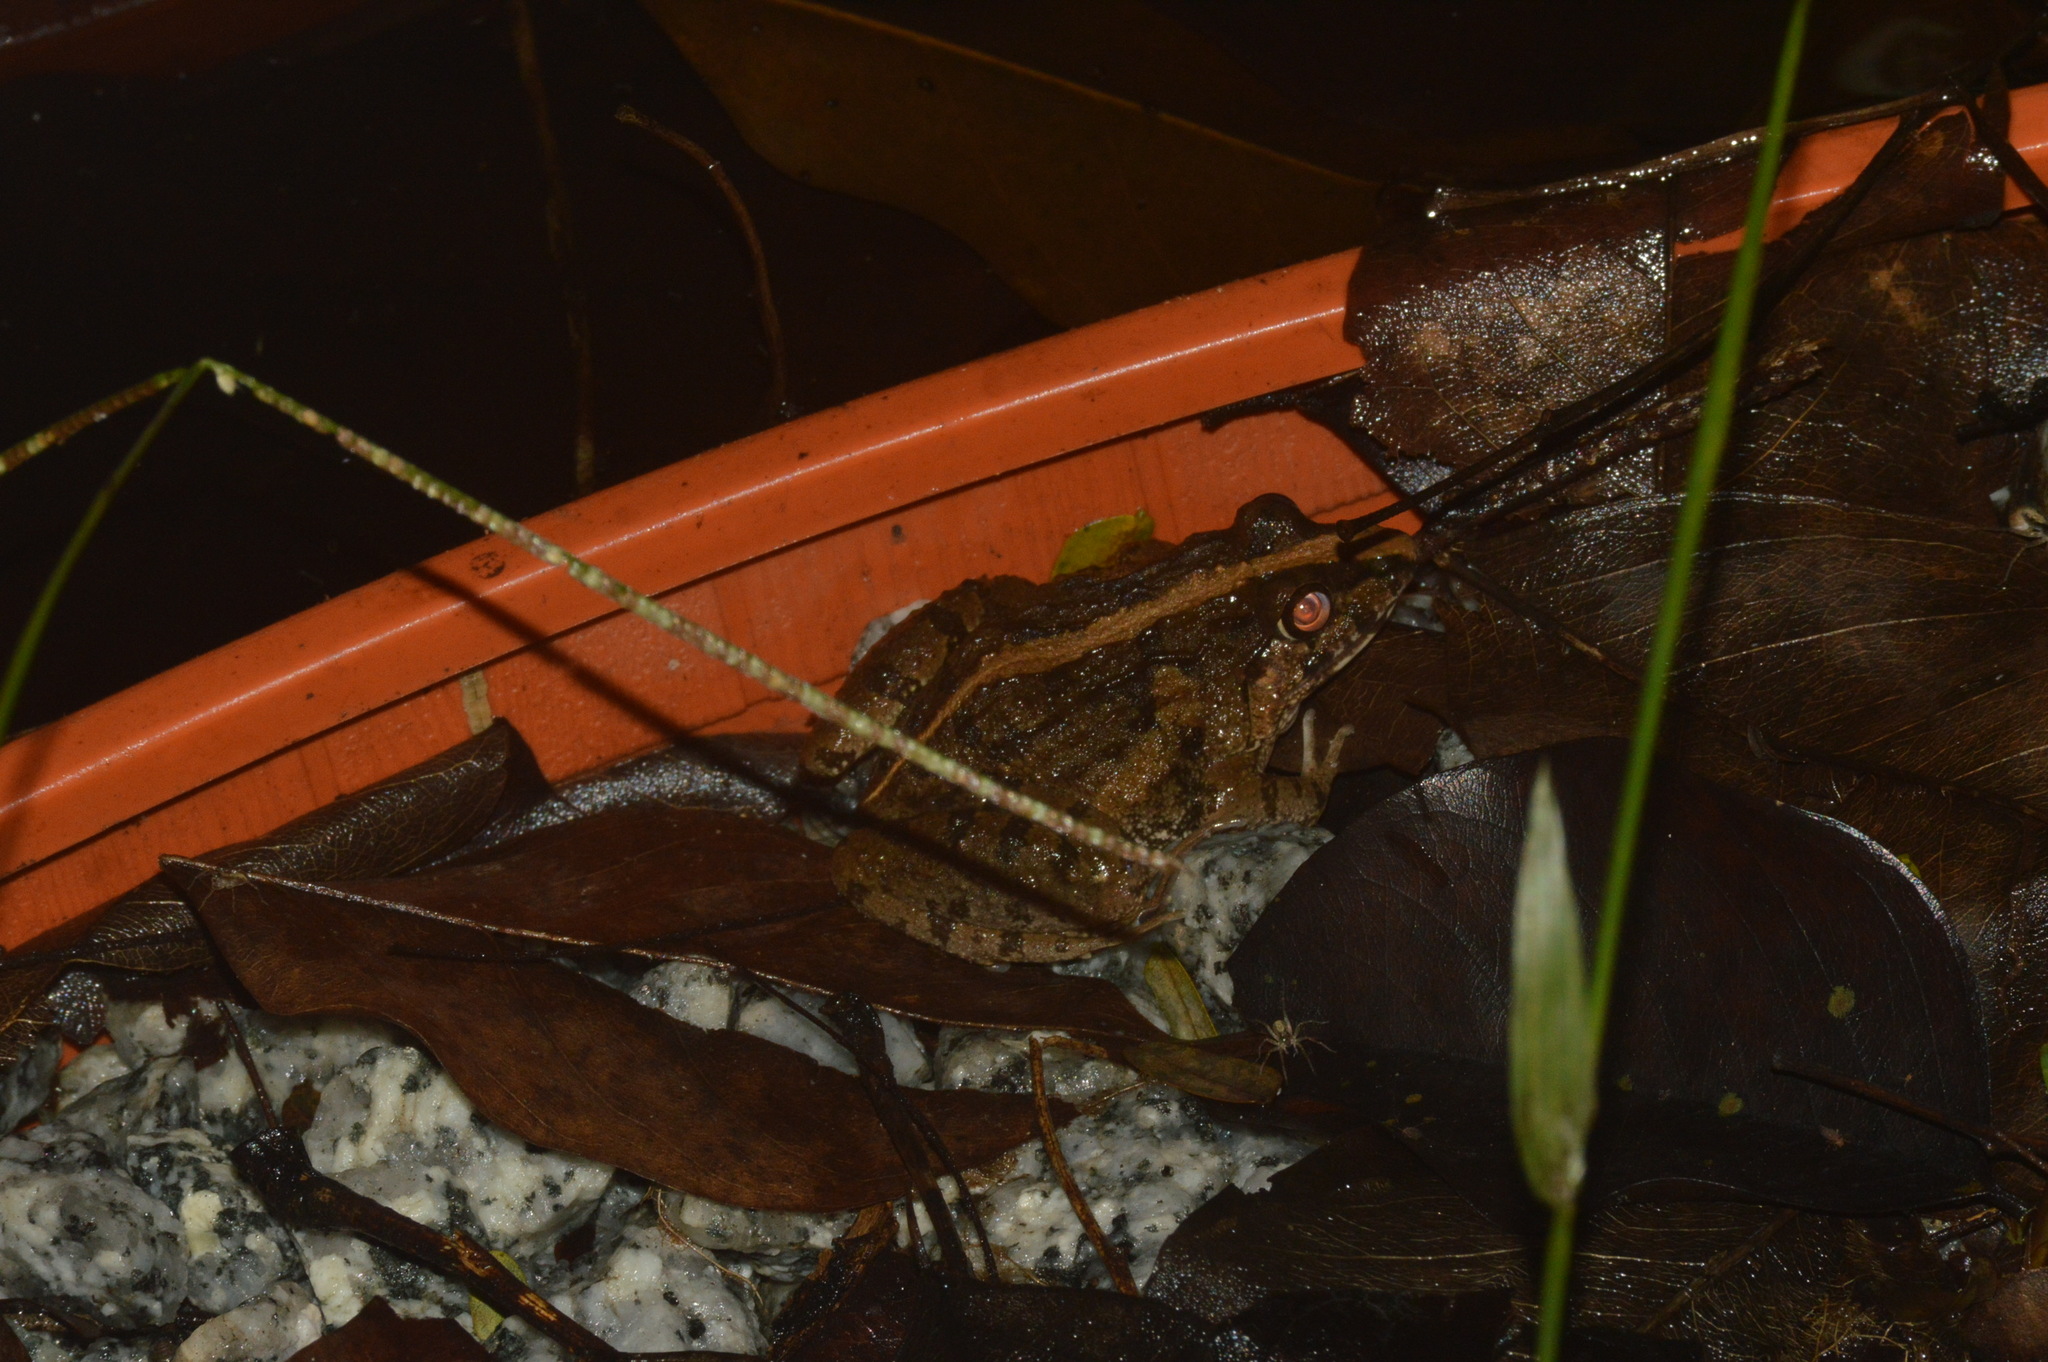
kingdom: Animalia
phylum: Chordata
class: Amphibia
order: Anura
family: Dicroglossidae
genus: Fejervarya
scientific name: Fejervarya limnocharis
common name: Asian grass frog/common pond frog/field frog/grass frog/indian rice frog
